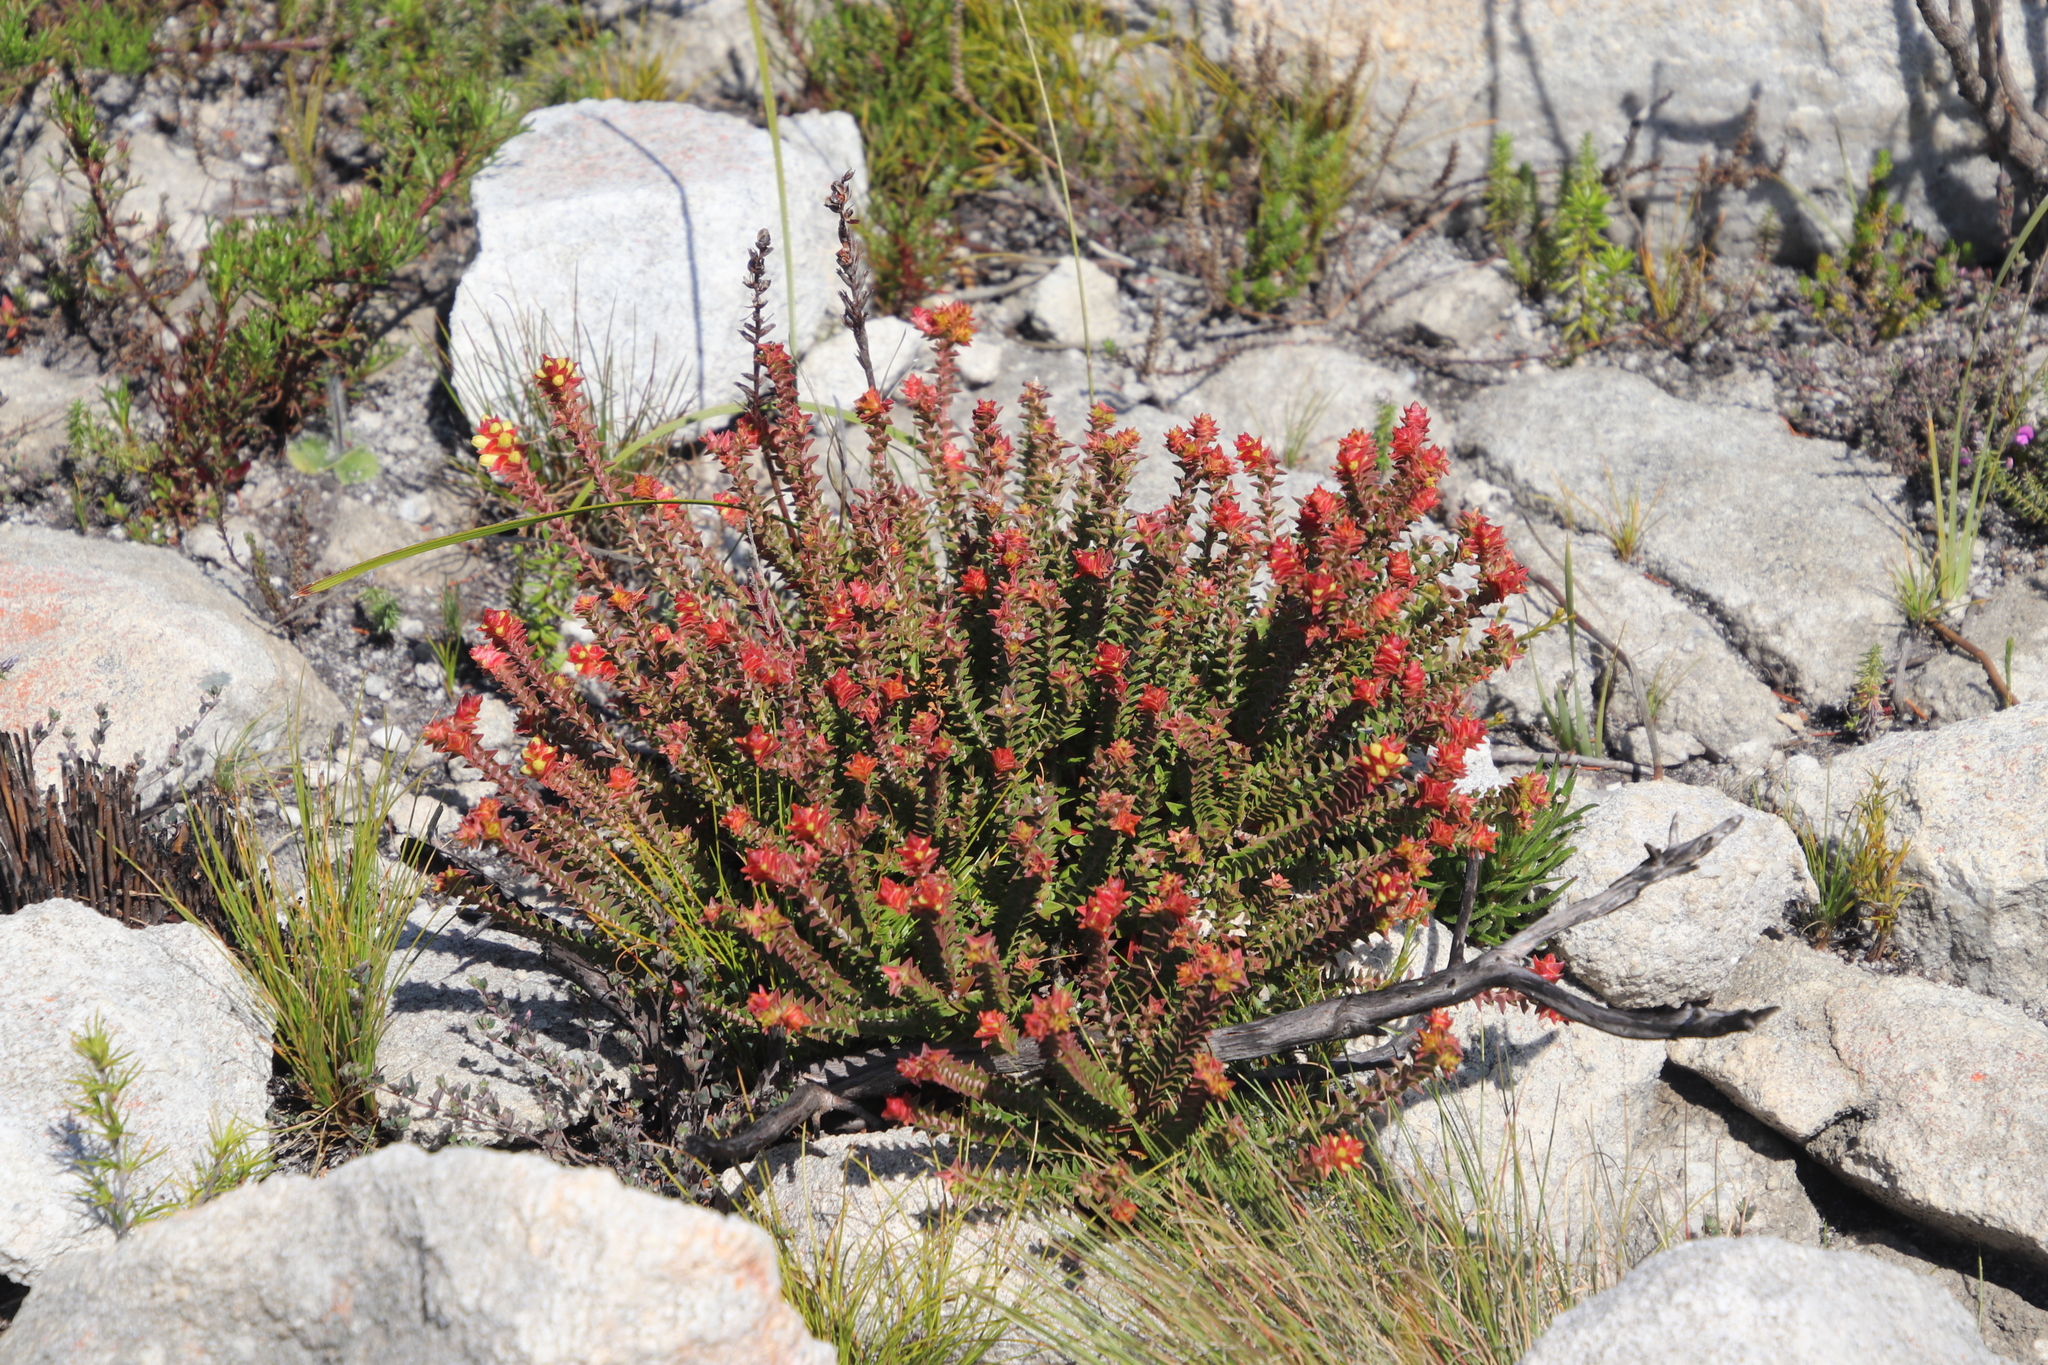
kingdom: Plantae
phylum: Tracheophyta
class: Magnoliopsida
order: Myrtales
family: Penaeaceae
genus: Penaea
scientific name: Penaea mucronata
